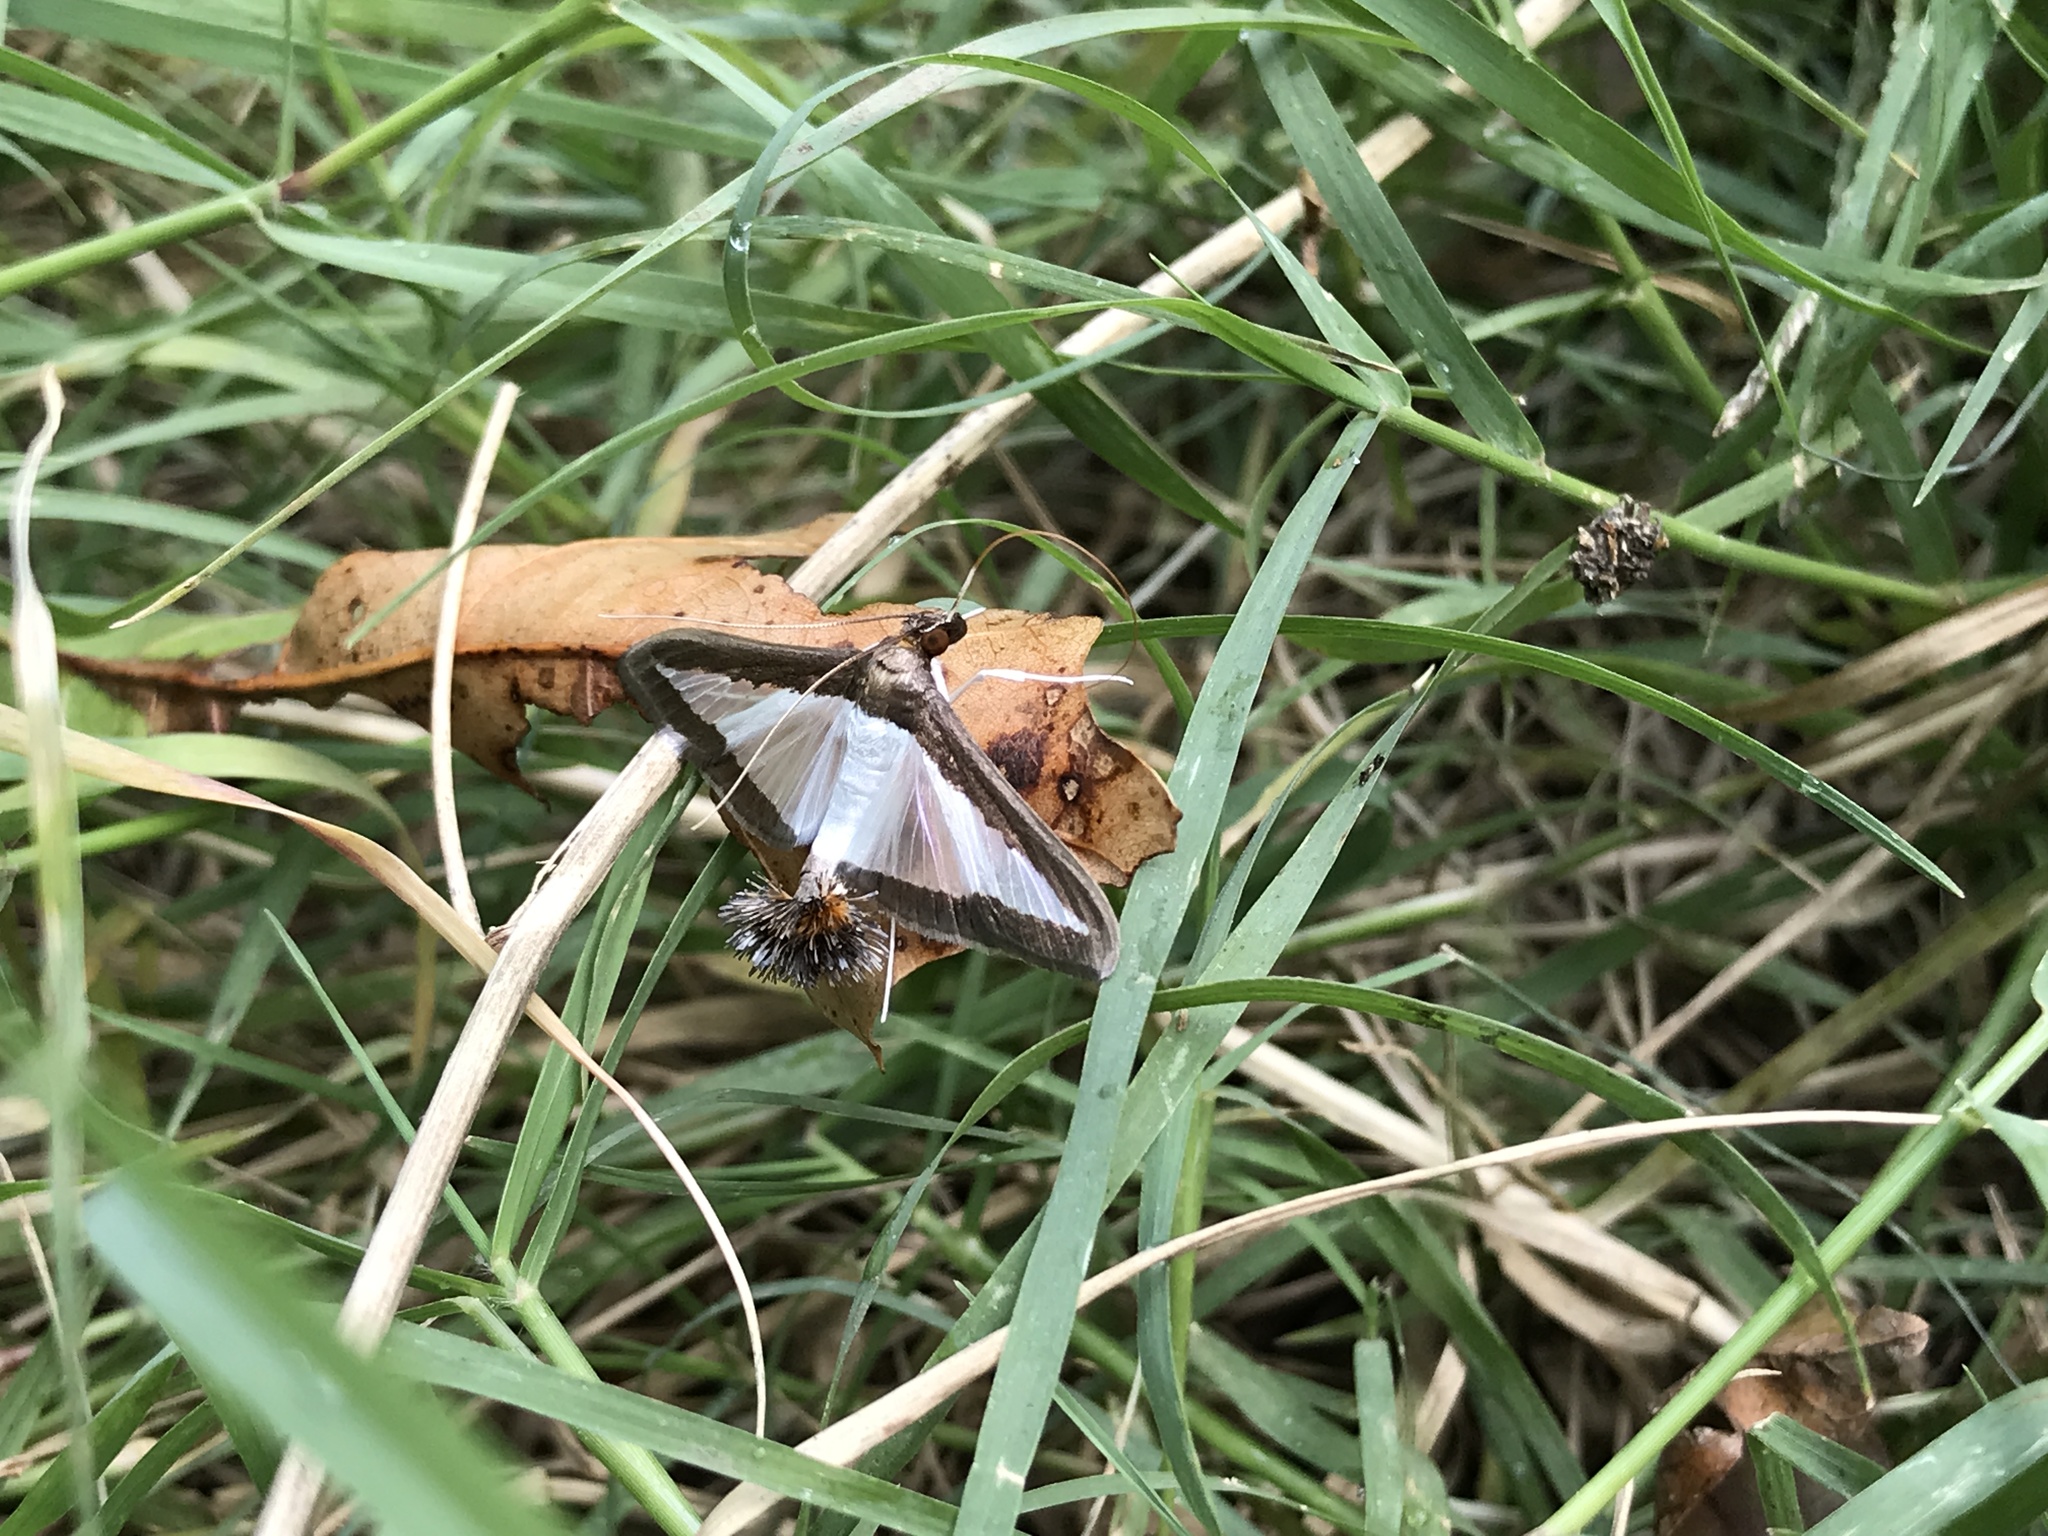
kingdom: Animalia
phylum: Arthropoda
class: Insecta
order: Lepidoptera
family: Crambidae
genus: Diaphania
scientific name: Diaphania hyalinata
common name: Melonworm
